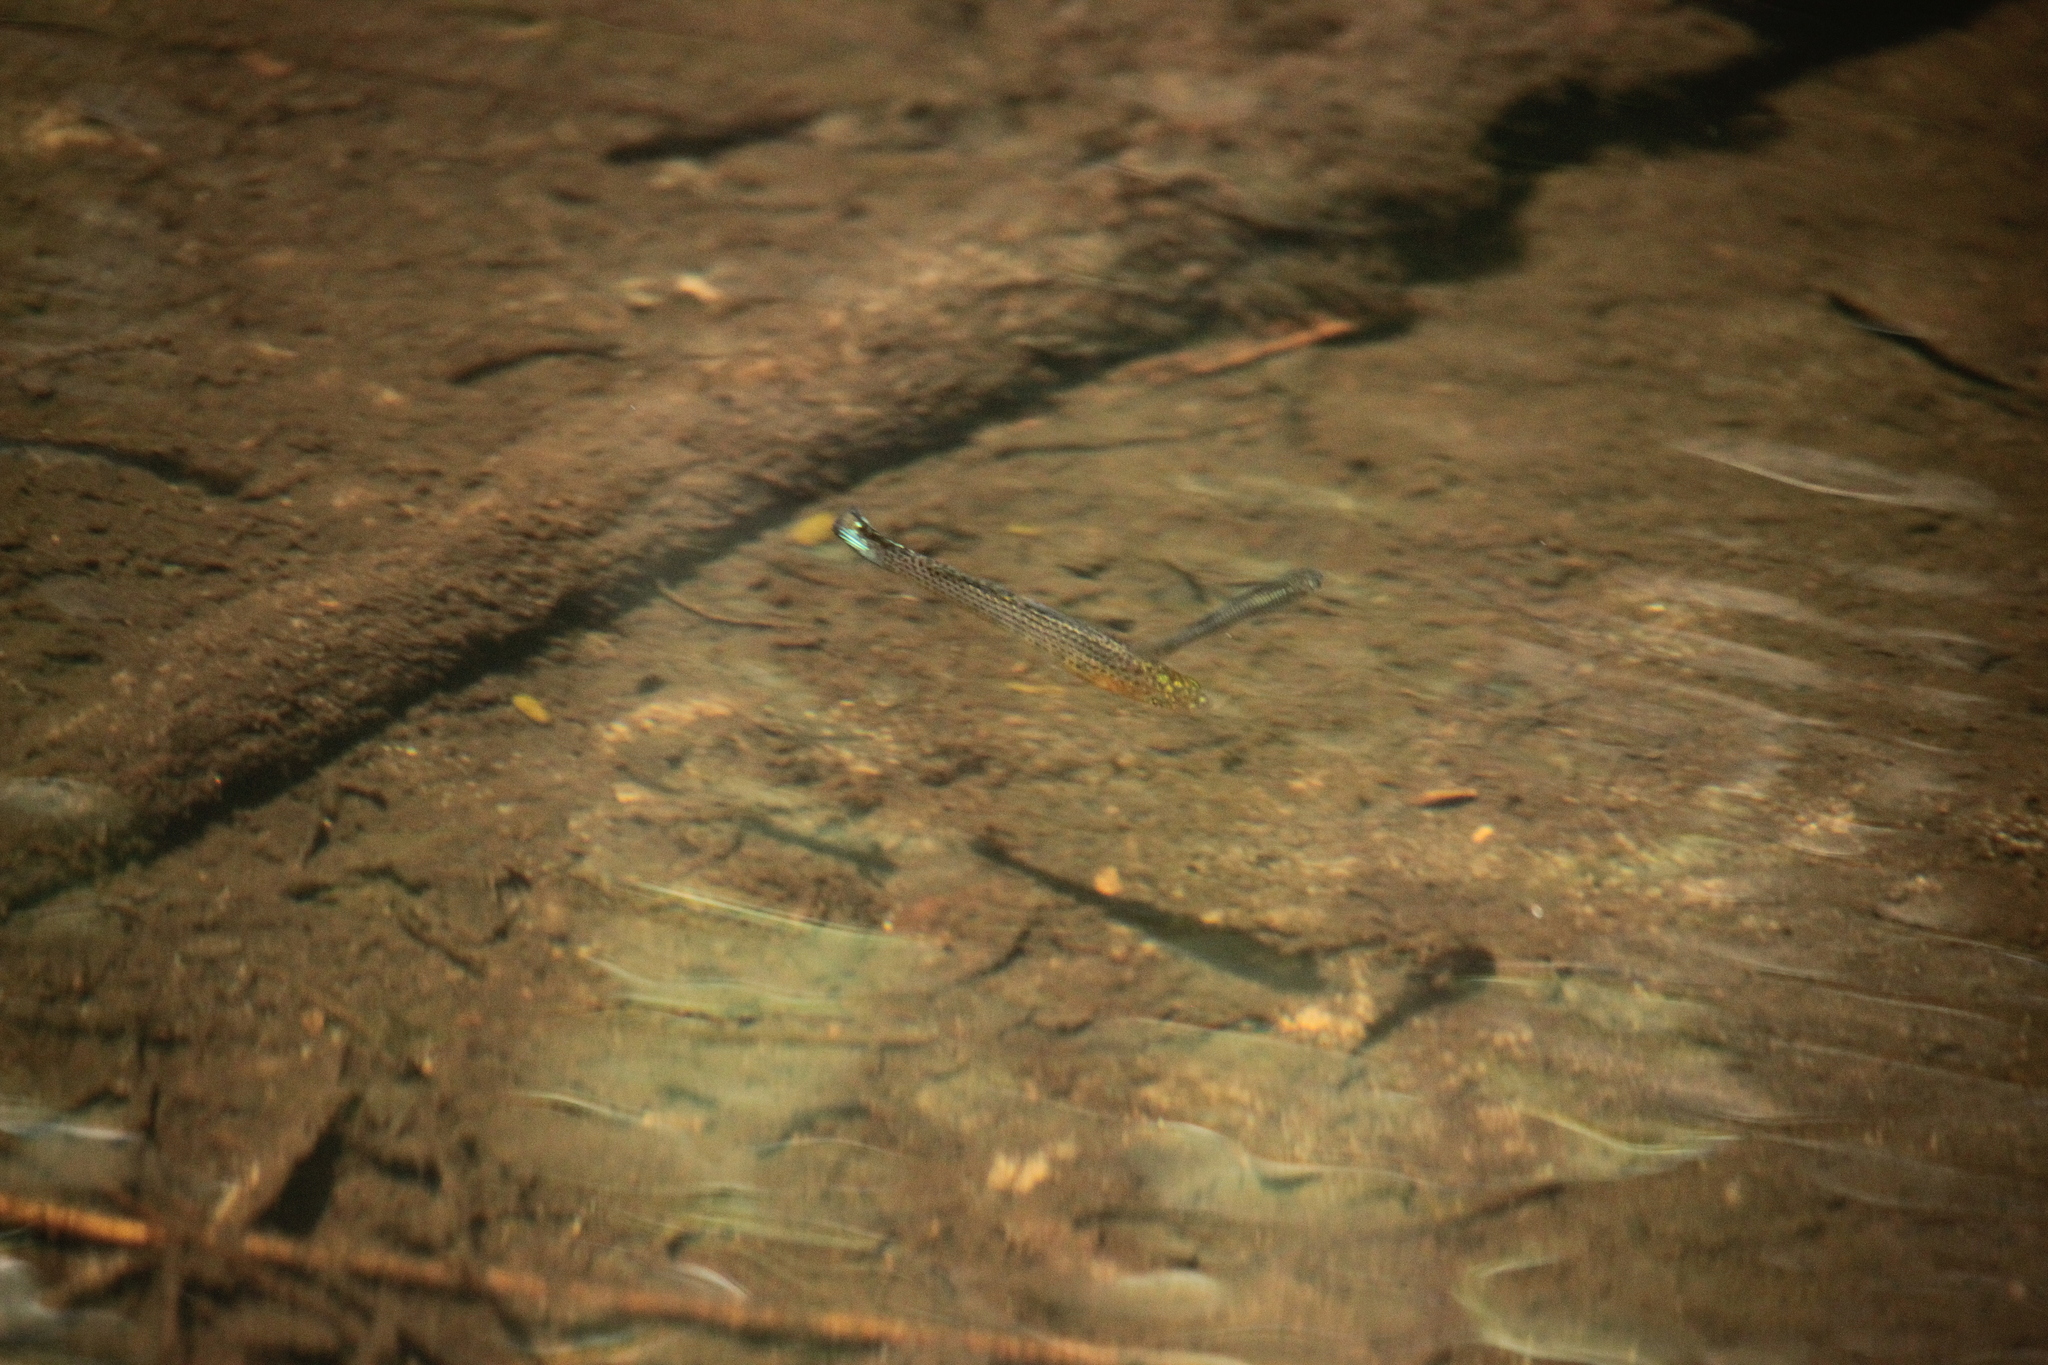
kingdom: Animalia
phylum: Chordata
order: Cyprinodontiformes
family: Poeciliidae
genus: Poecilia
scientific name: Poecilia latipinna
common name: Sailfin molly
